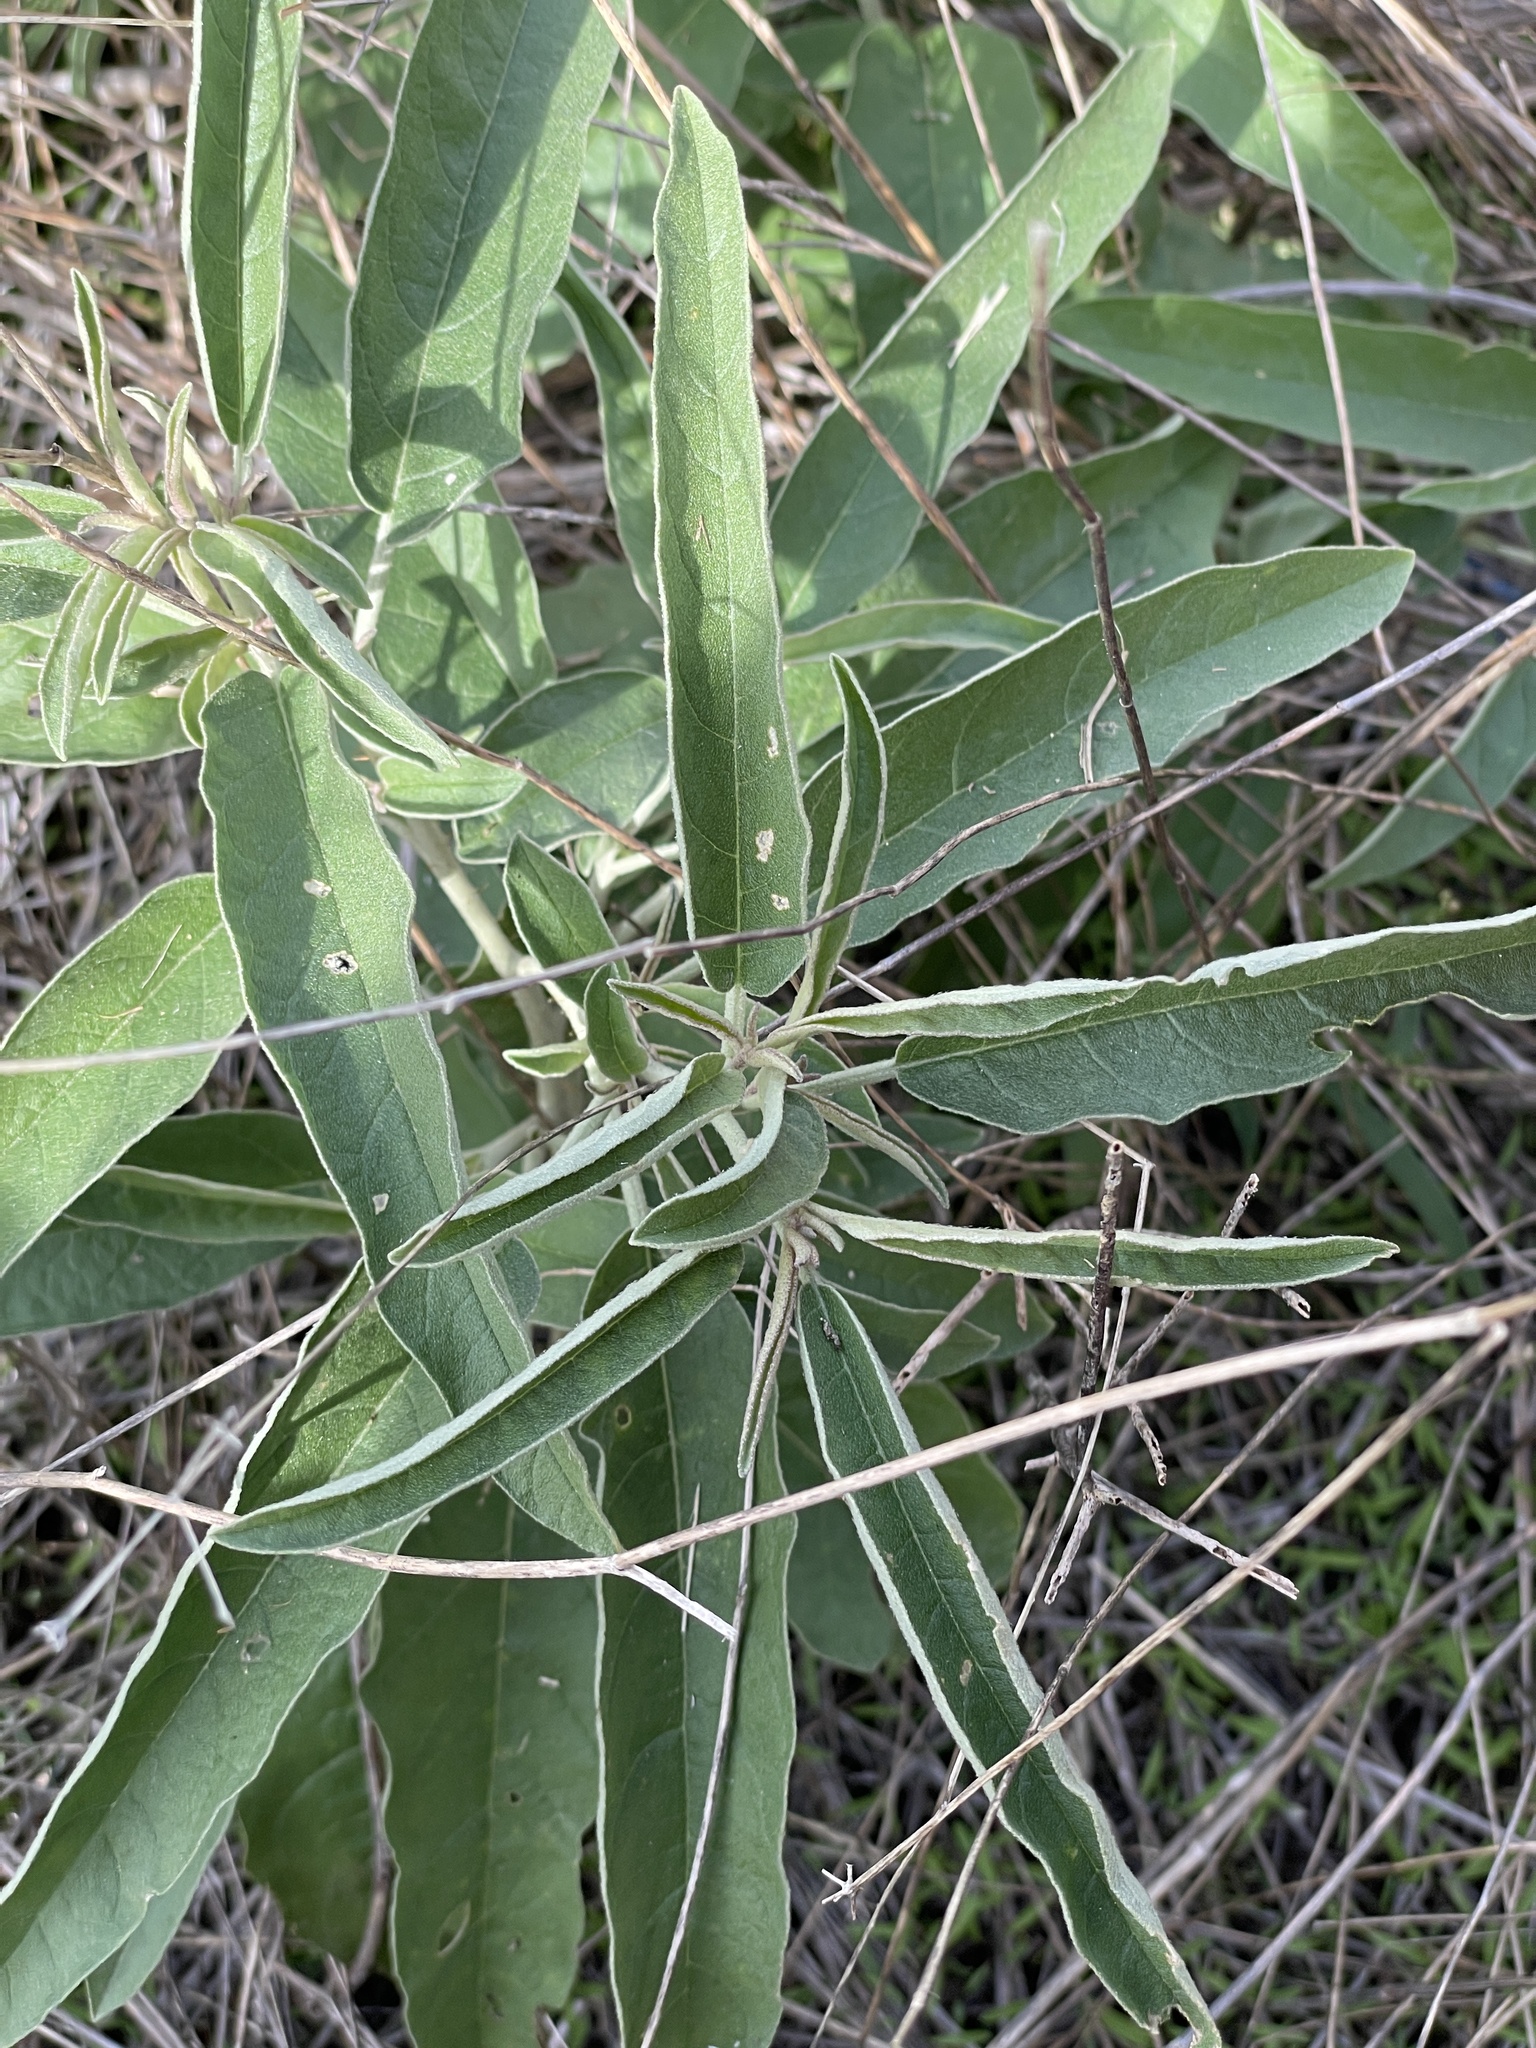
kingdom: Plantae
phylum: Tracheophyta
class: Magnoliopsida
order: Solanales
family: Solanaceae
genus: Solanum
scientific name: Solanum elaeagnifolium
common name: Silverleaf nightshade
